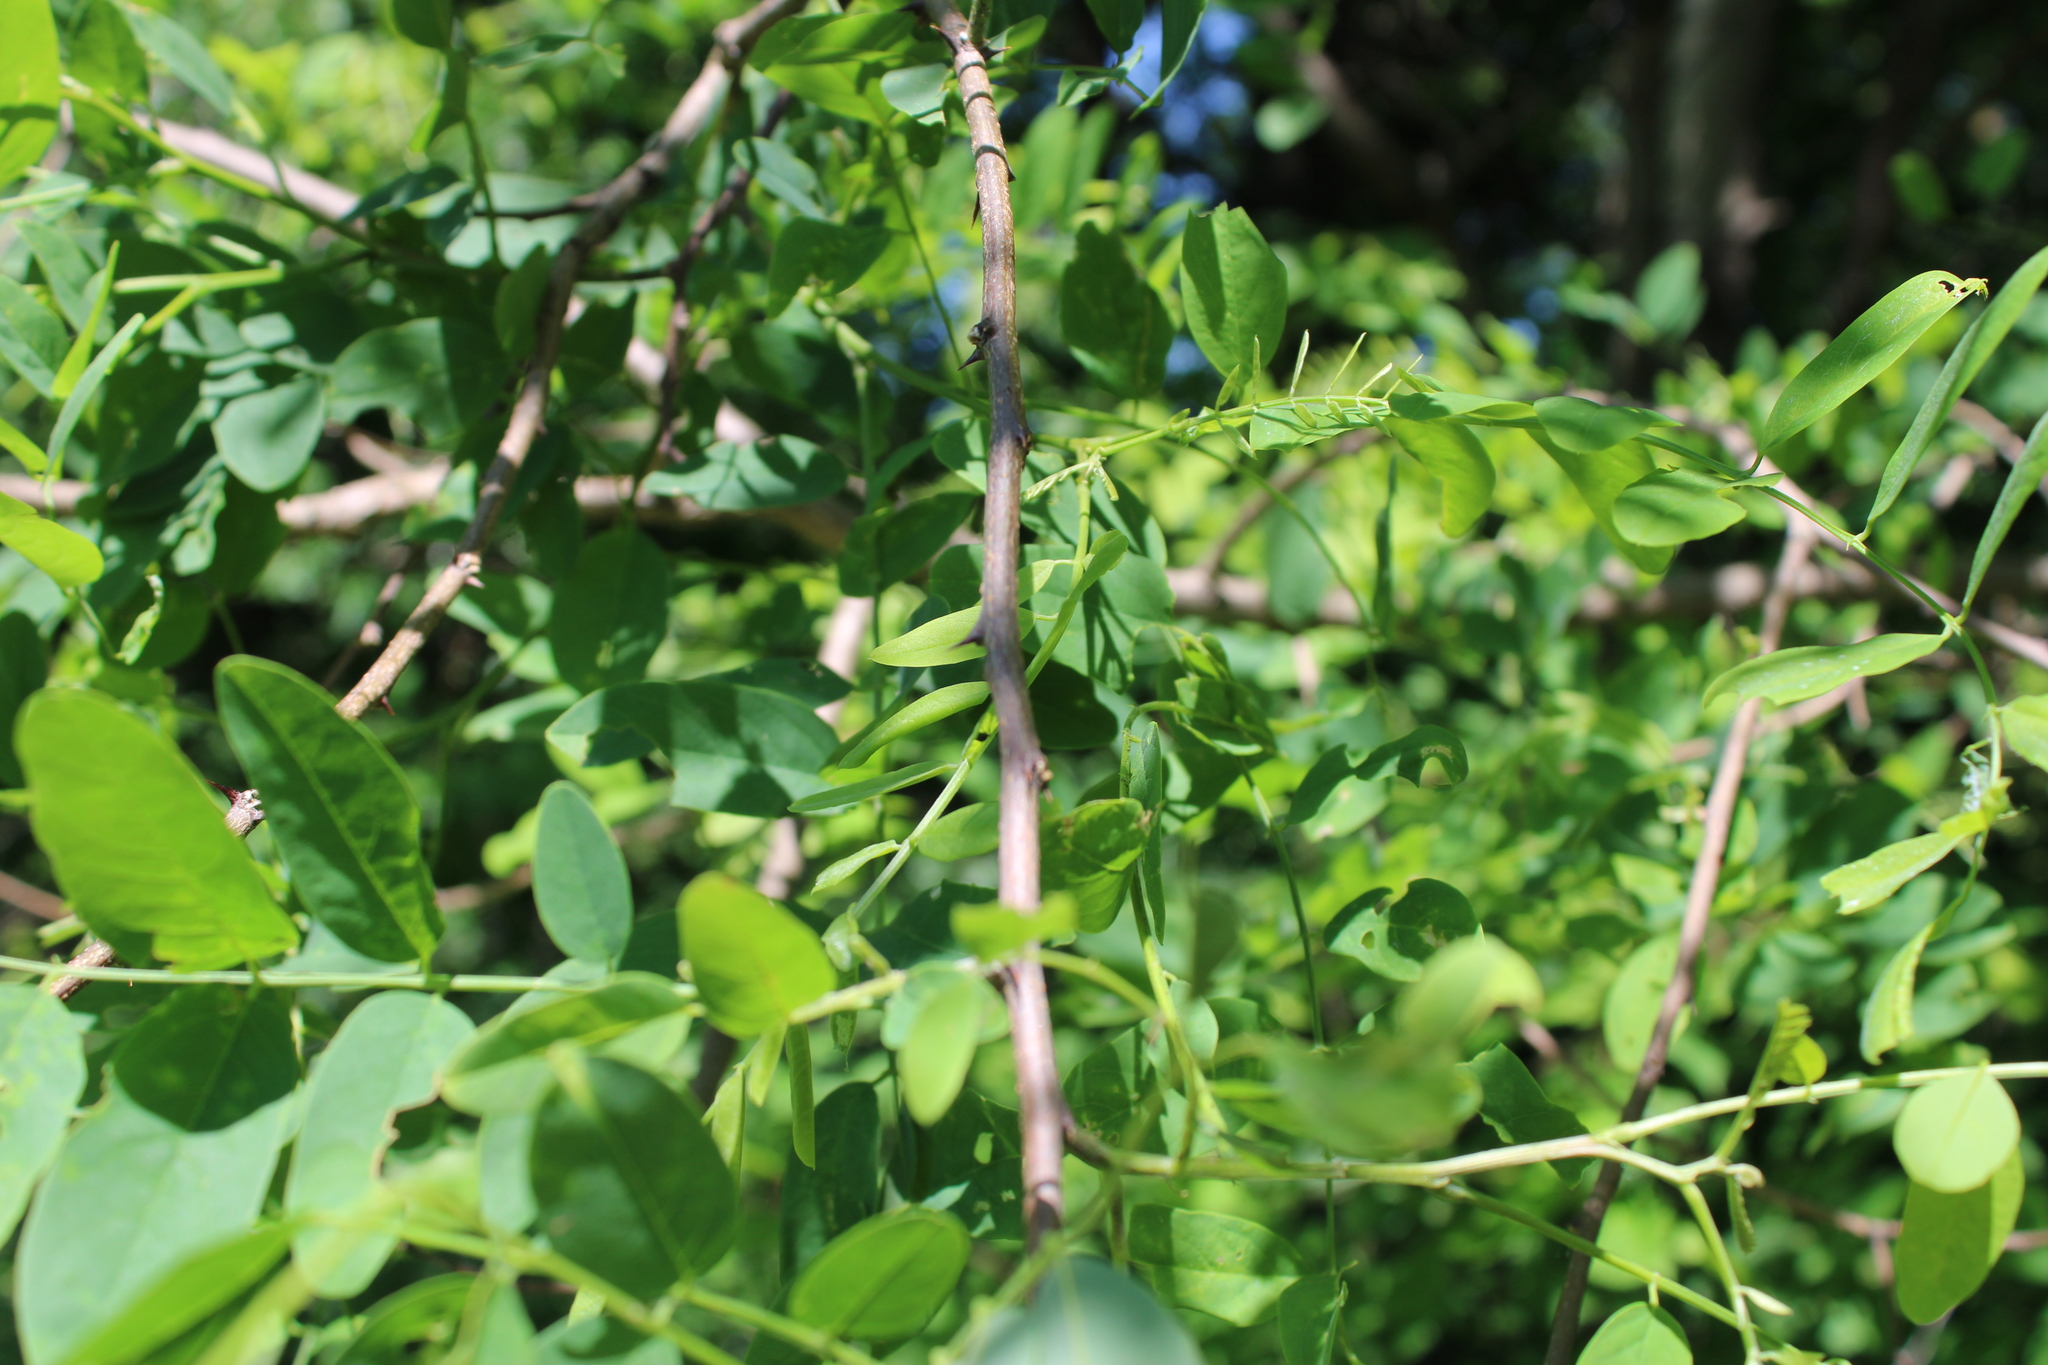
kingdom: Plantae
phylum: Tracheophyta
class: Magnoliopsida
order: Fabales
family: Fabaceae
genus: Robinia
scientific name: Robinia pseudoacacia
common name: Black locust
